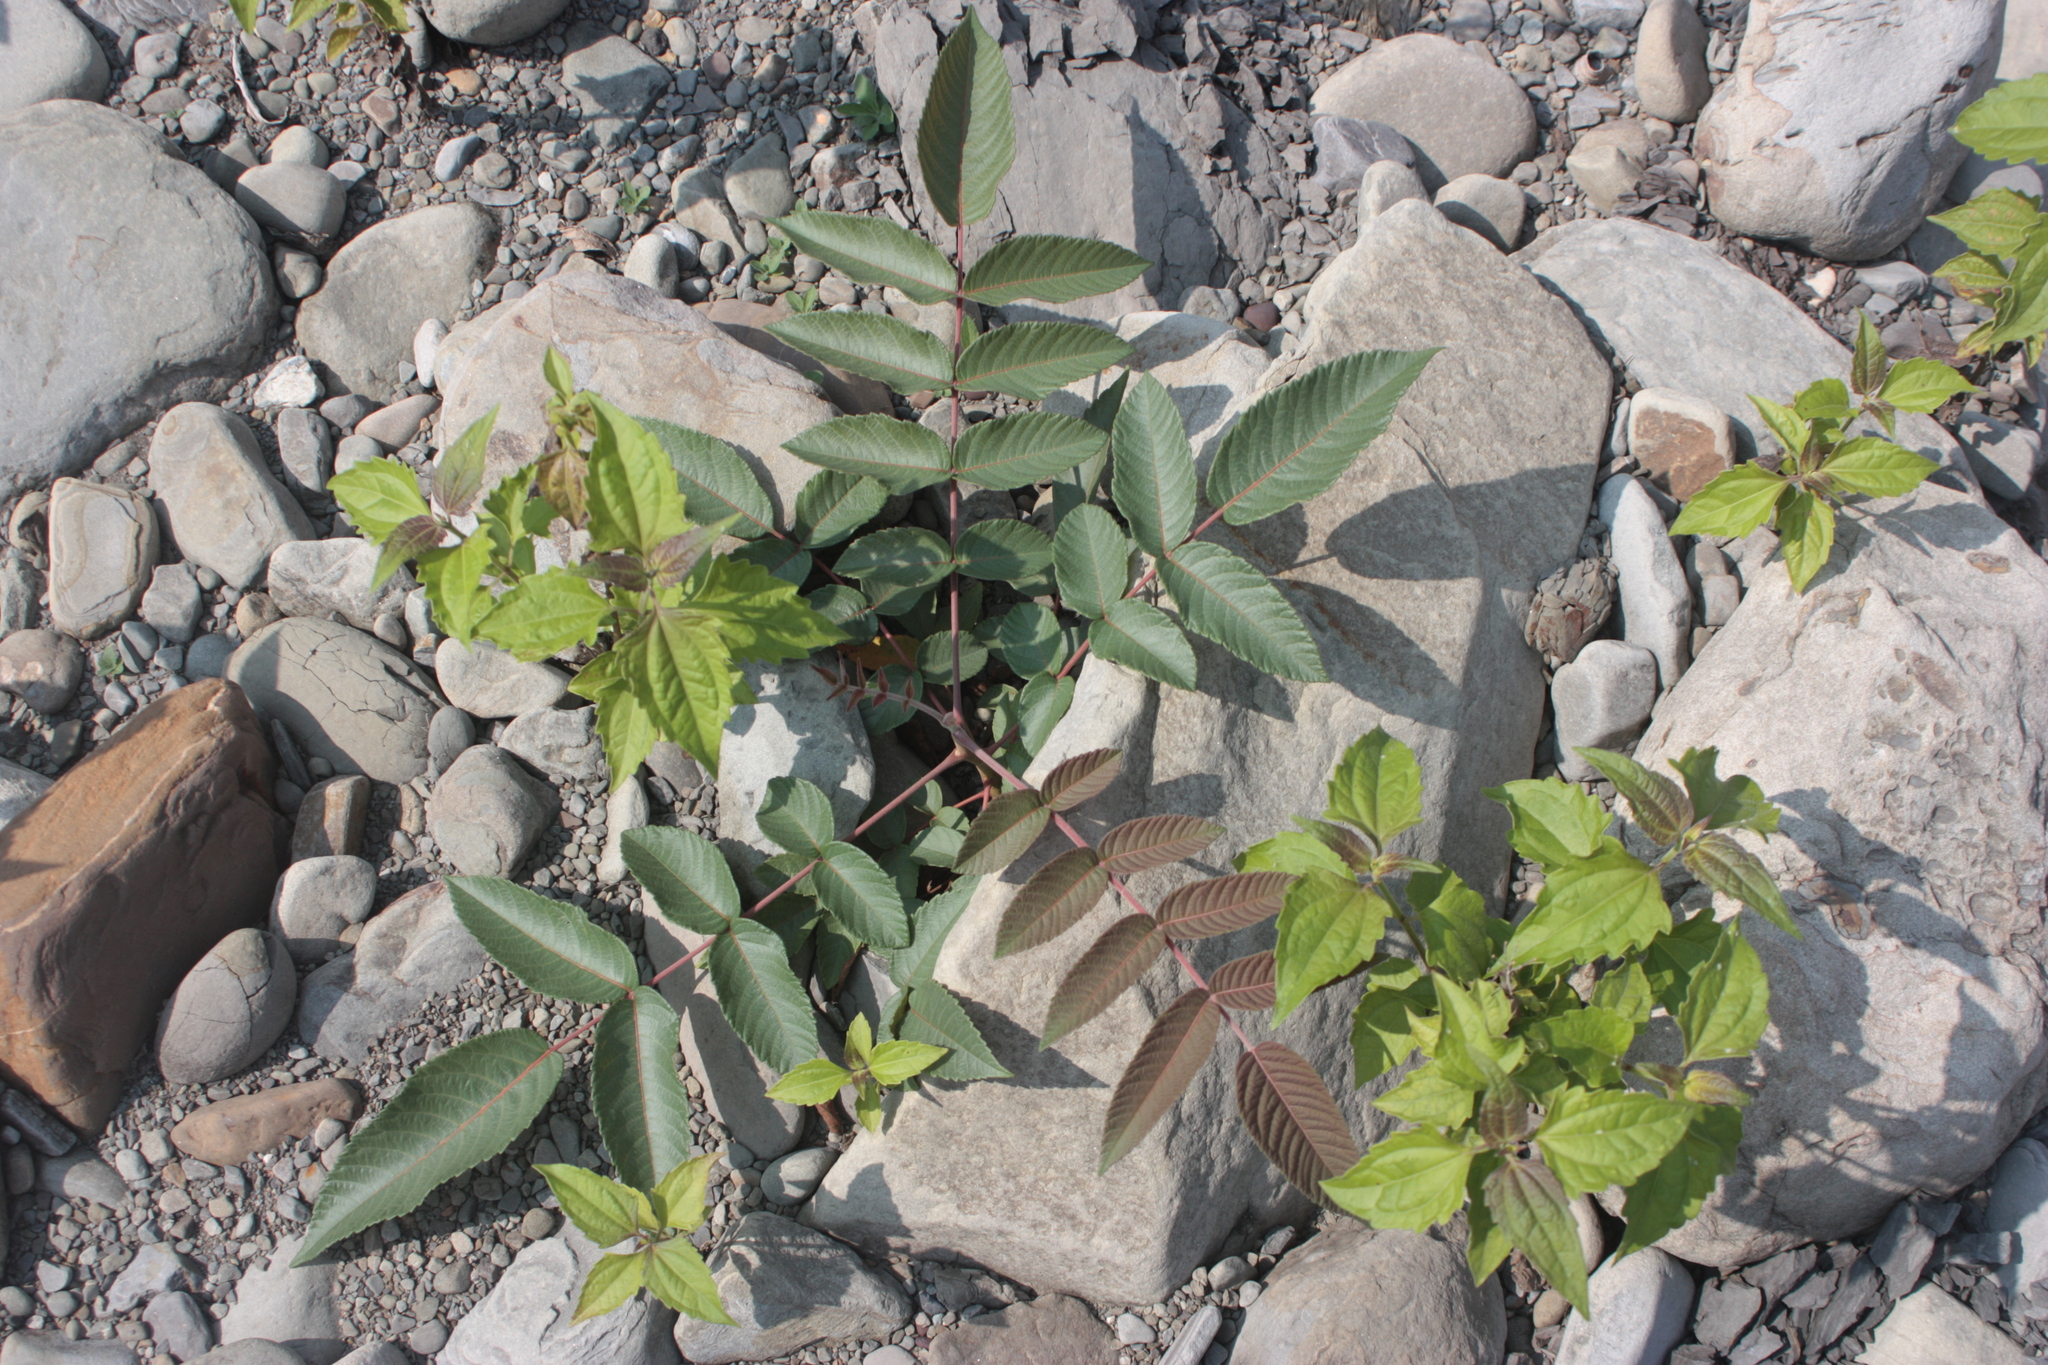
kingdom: Plantae
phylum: Tracheophyta
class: Magnoliopsida
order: Sapindales
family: Anacardiaceae
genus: Rhus
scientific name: Rhus chinensis
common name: Chinese gall
